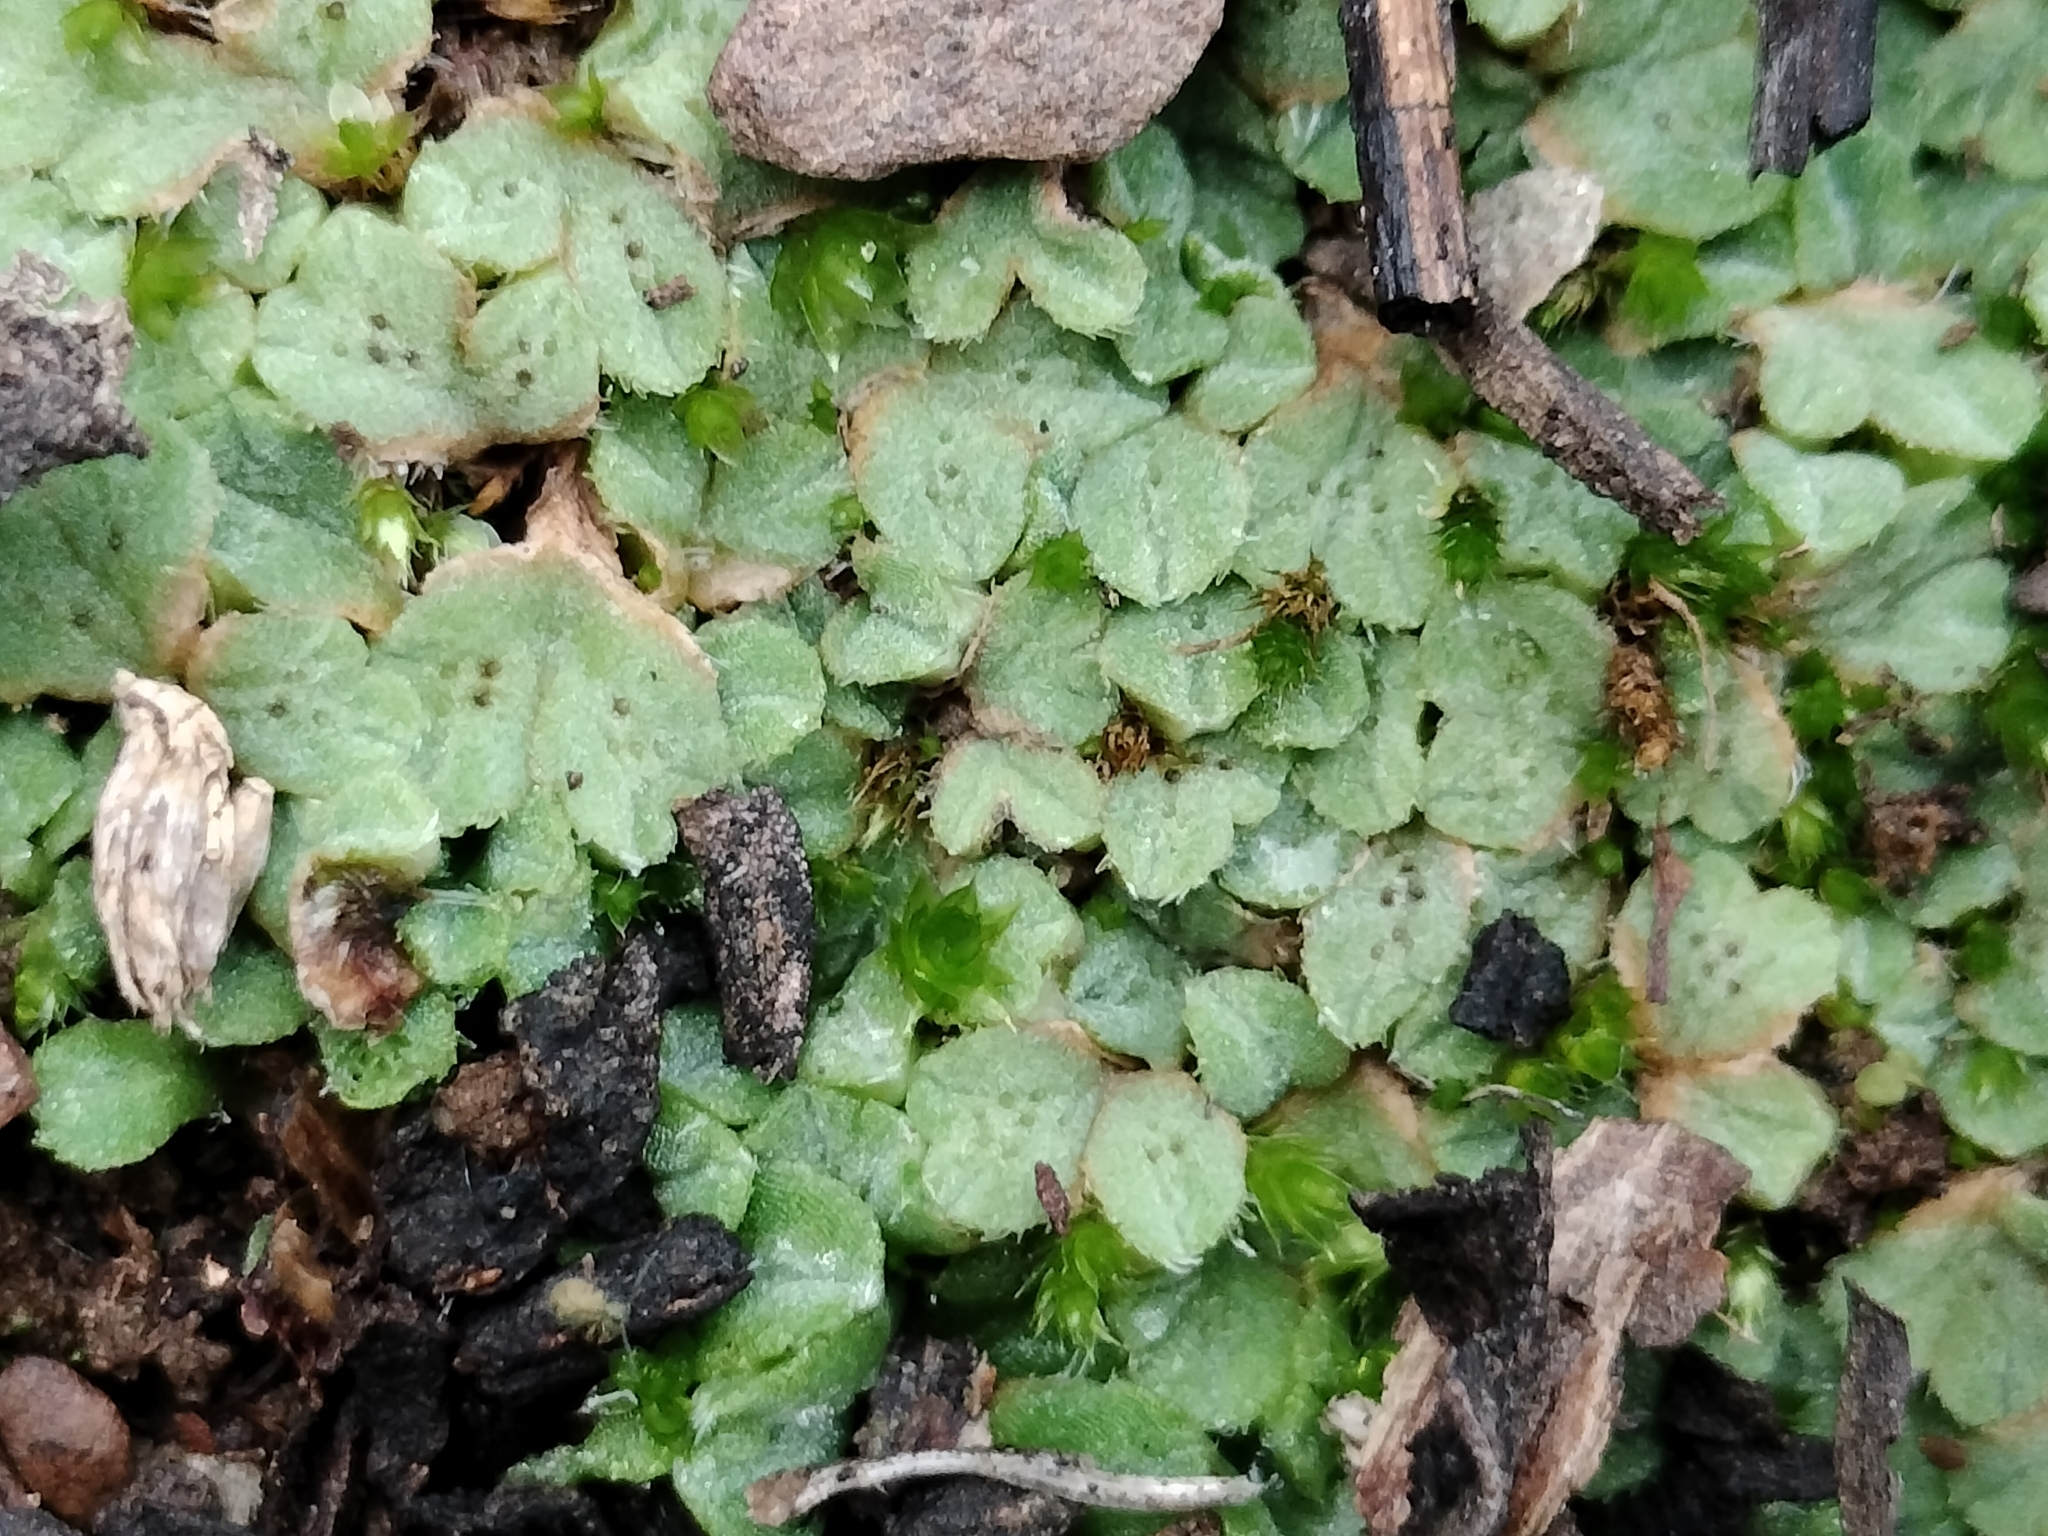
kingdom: Plantae
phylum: Marchantiophyta
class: Marchantiopsida
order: Marchantiales
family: Ricciaceae
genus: Riccia
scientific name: Riccia ciliifera
